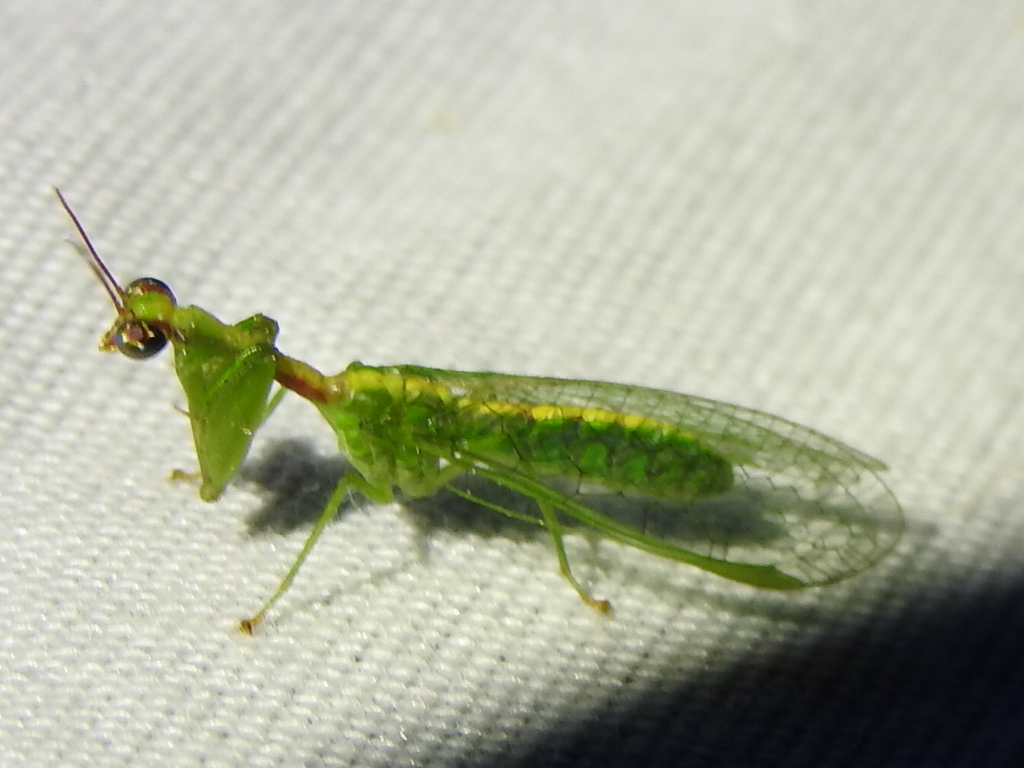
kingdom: Animalia
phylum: Arthropoda
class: Insecta
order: Neuroptera
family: Mantispidae
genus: Zeugomantispa
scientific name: Zeugomantispa minuta
